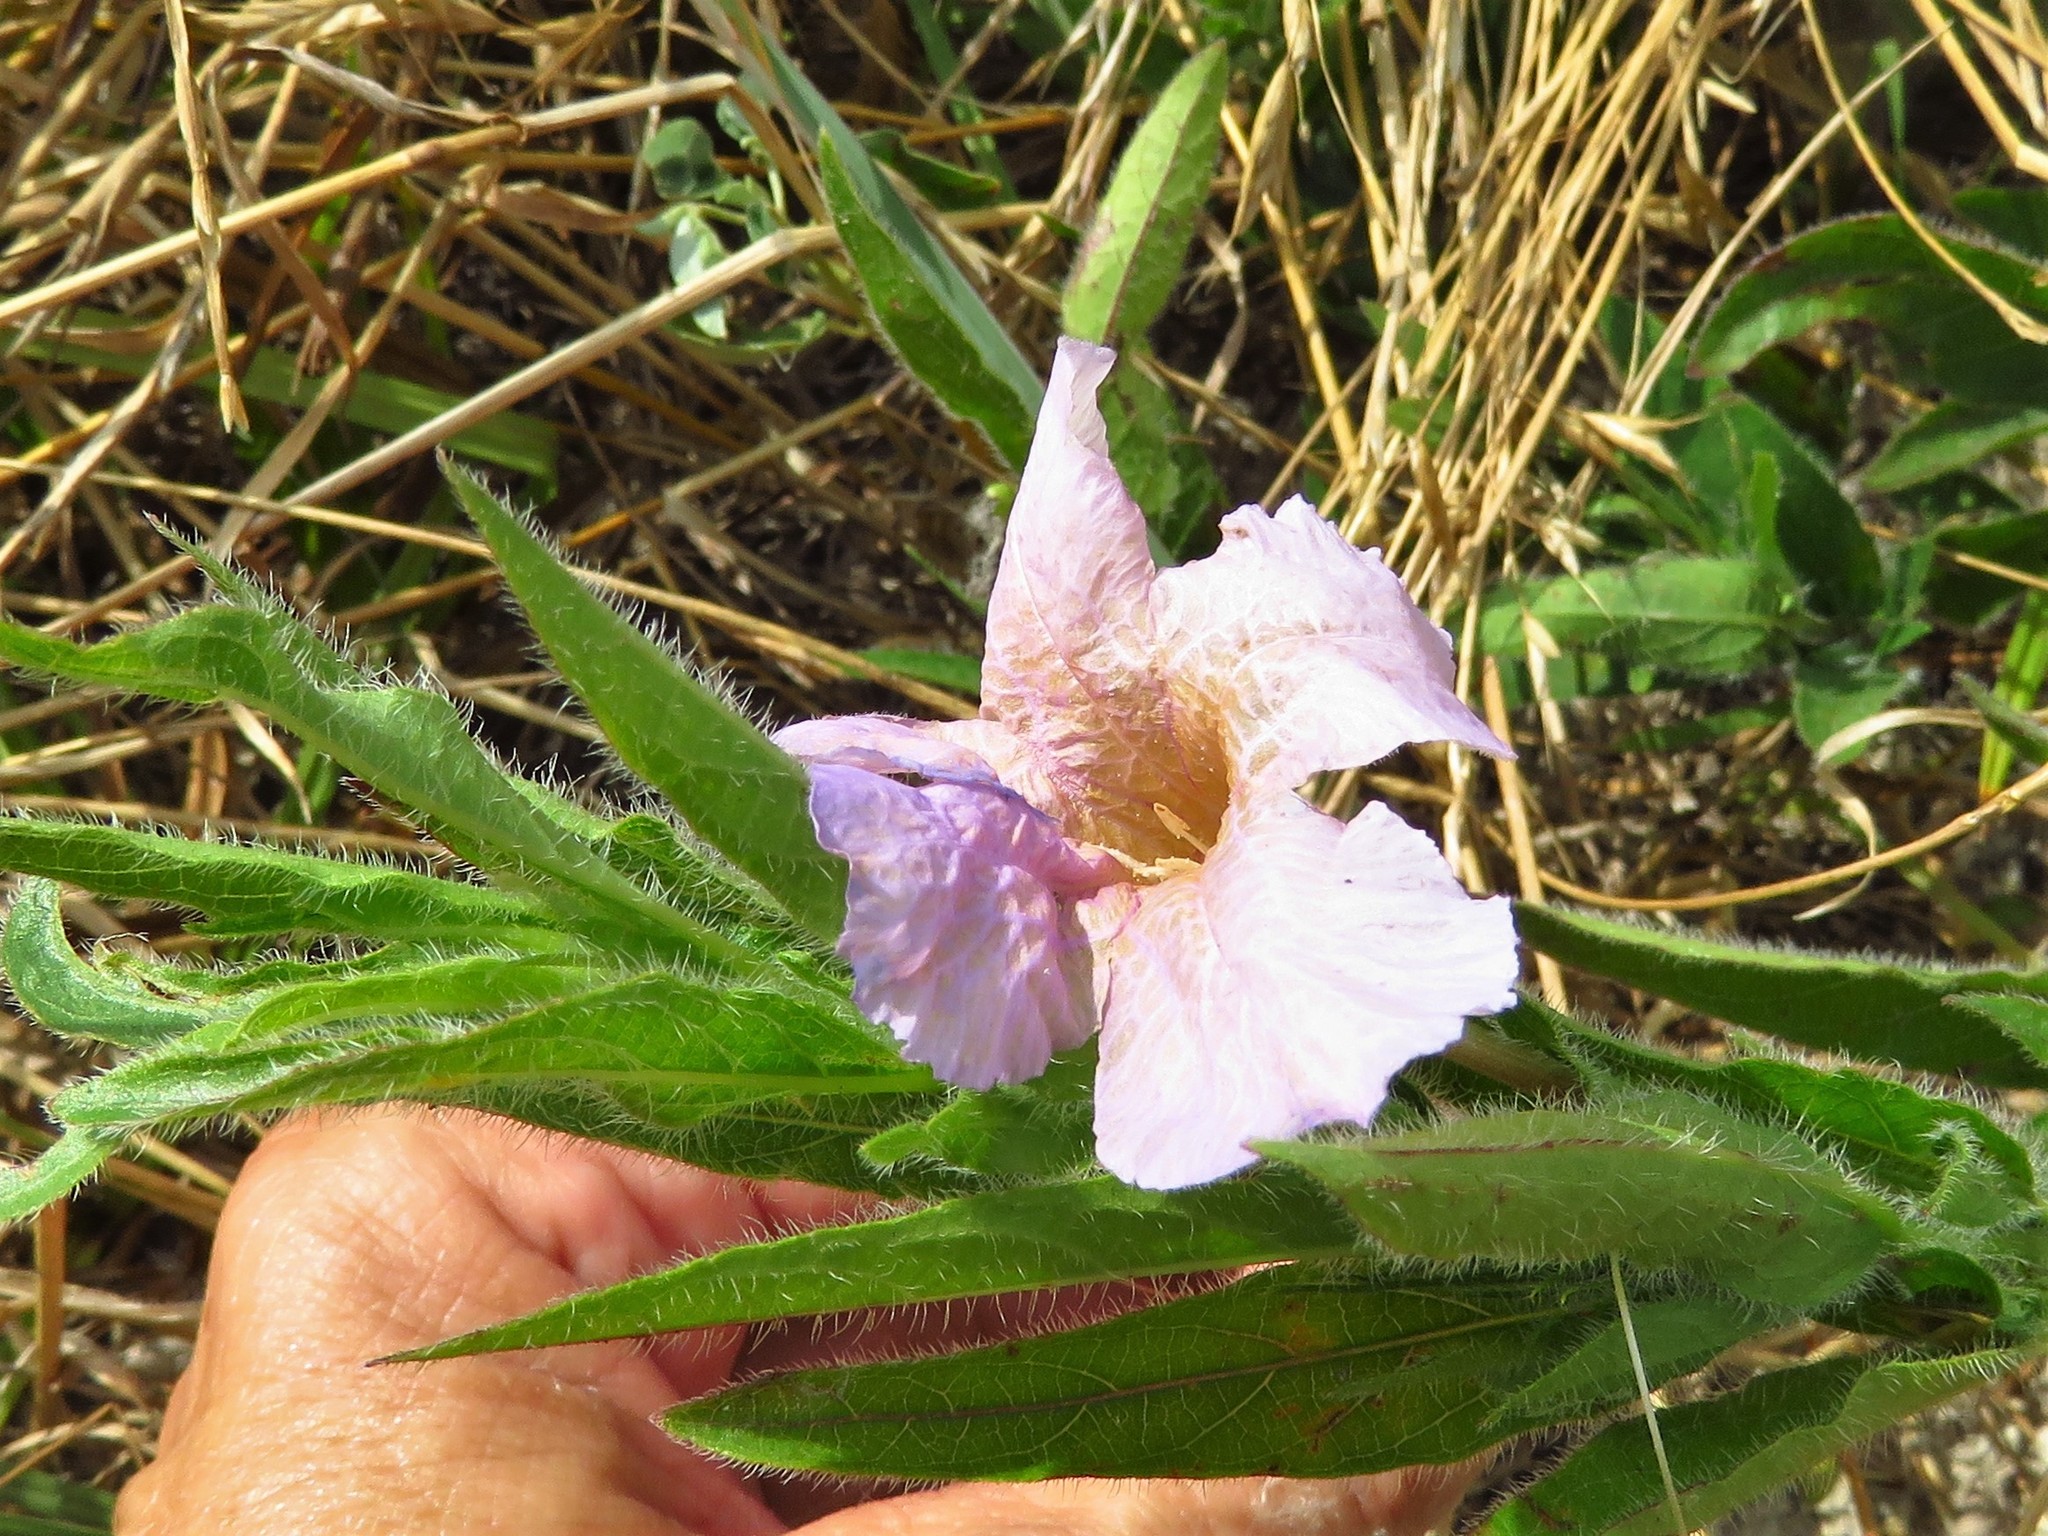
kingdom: Plantae
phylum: Tracheophyta
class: Magnoliopsida
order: Lamiales
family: Acanthaceae
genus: Ruellia
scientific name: Ruellia humilis
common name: Fringe-leaf ruellia
